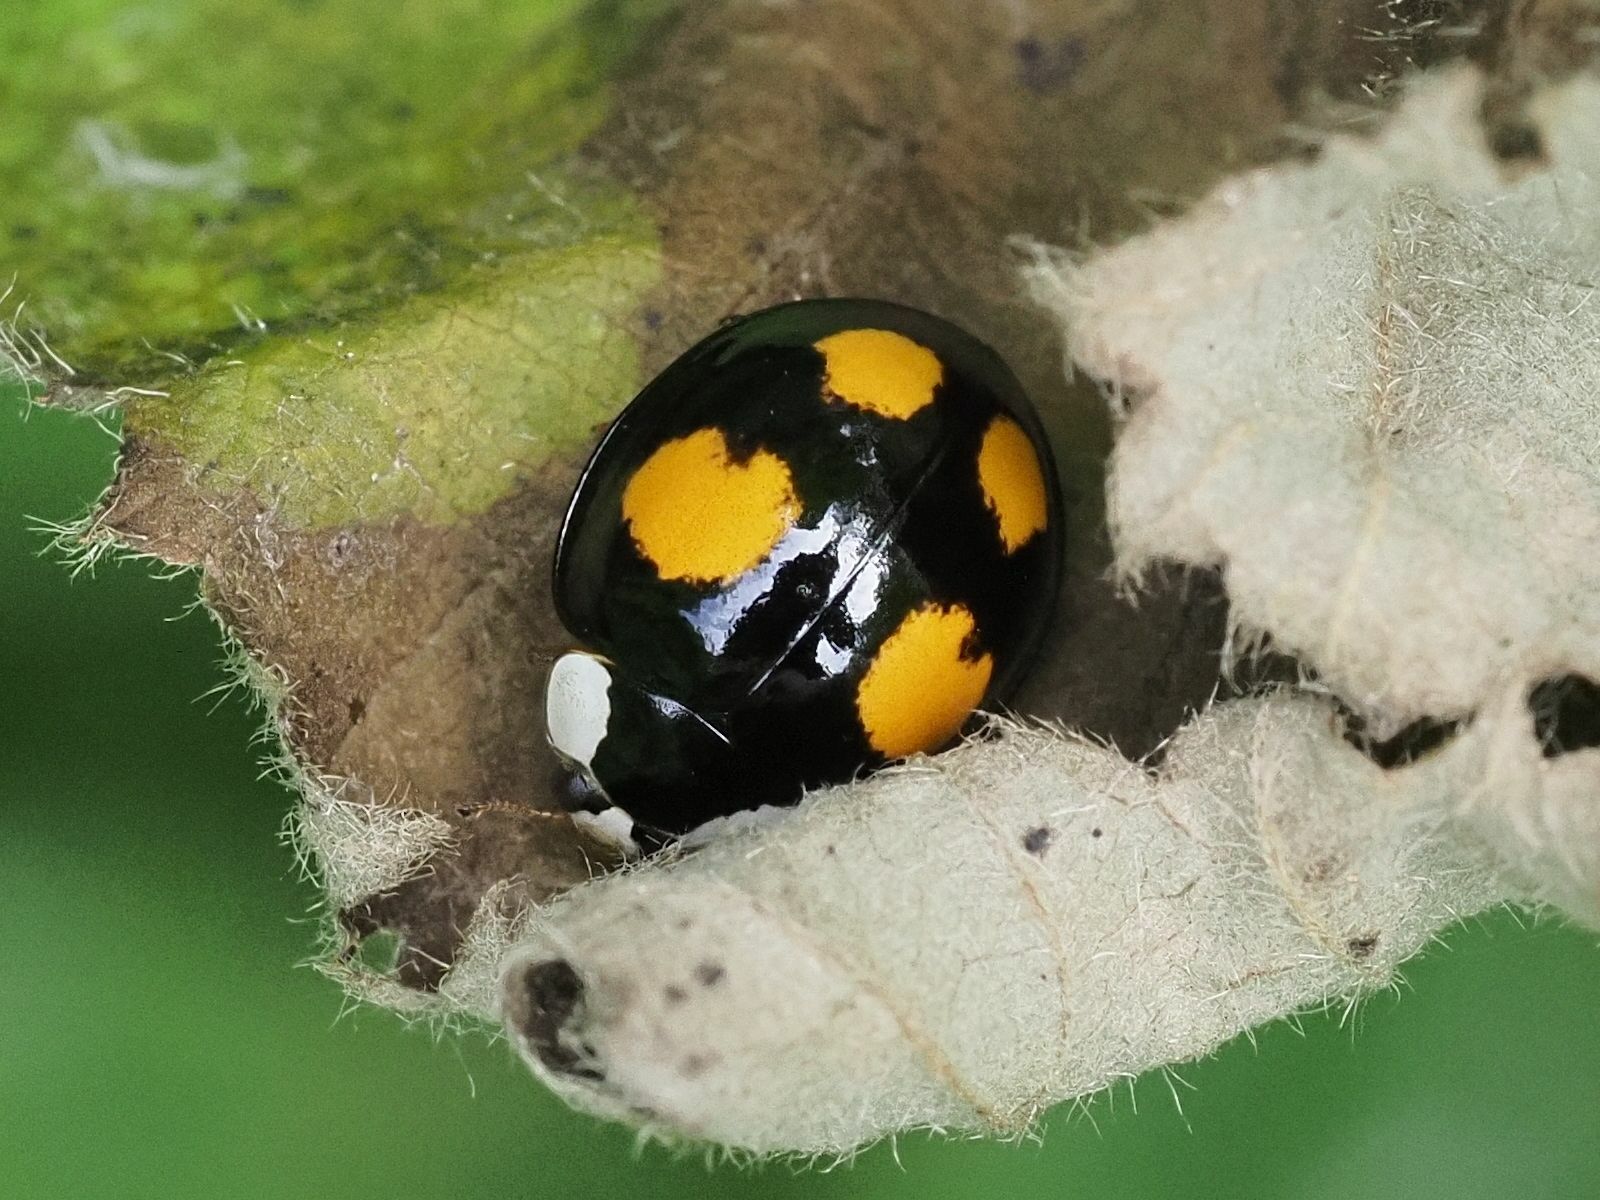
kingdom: Animalia
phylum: Arthropoda
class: Insecta
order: Coleoptera
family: Coccinellidae
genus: Harmonia
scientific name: Harmonia axyridis
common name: Harlequin ladybird
